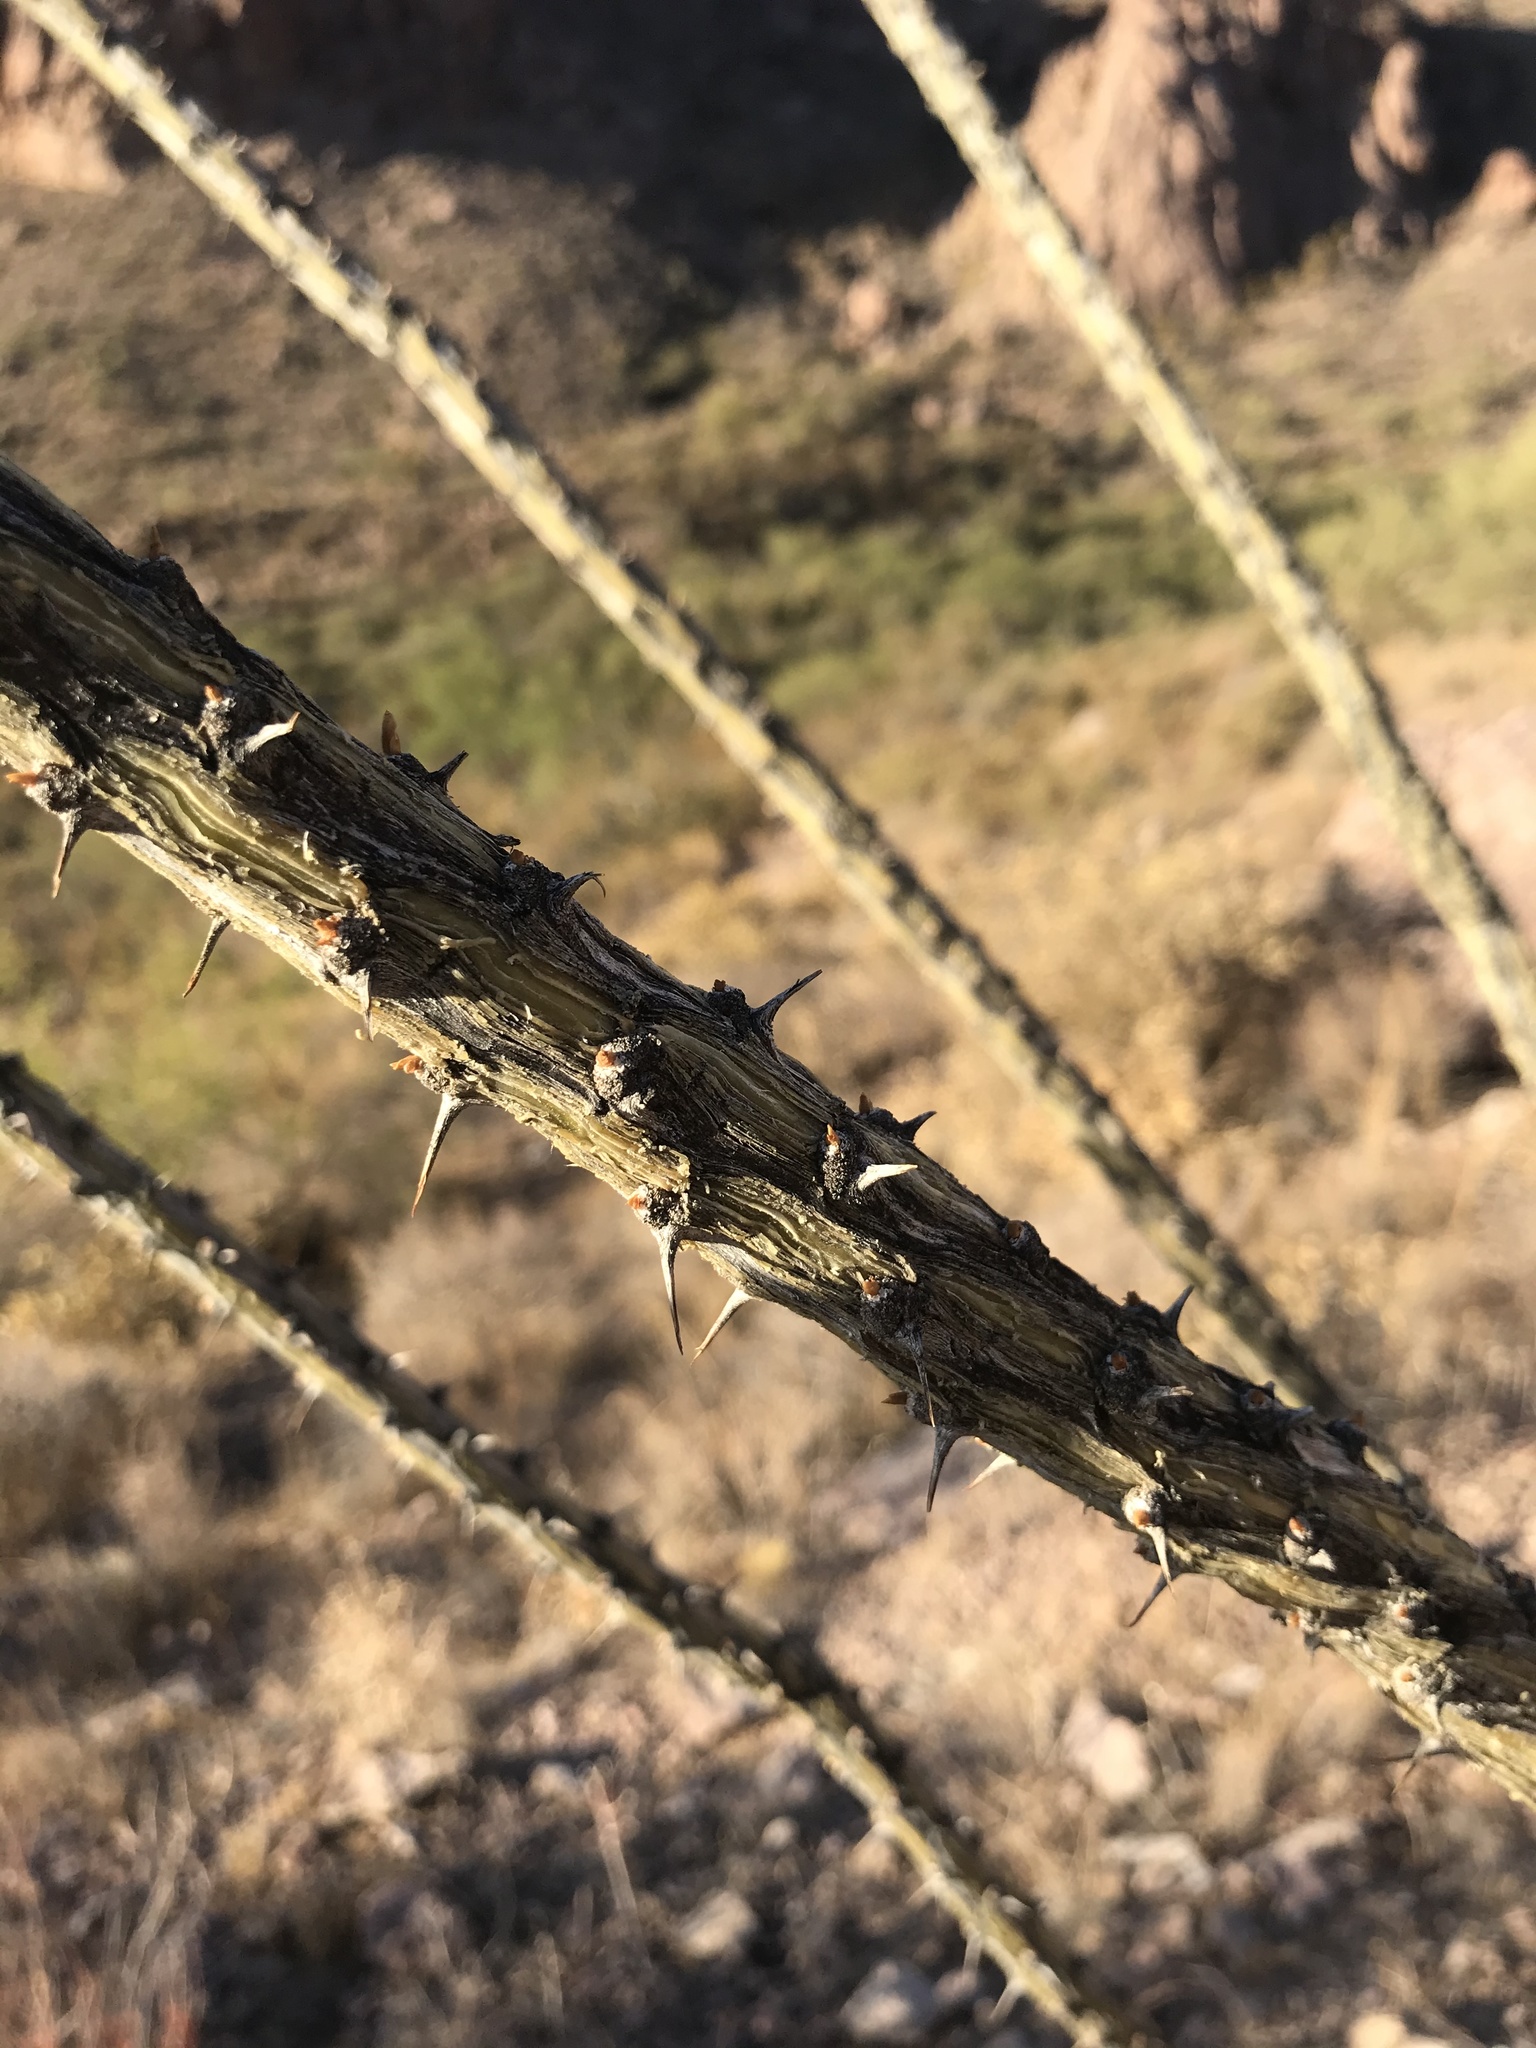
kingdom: Plantae
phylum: Tracheophyta
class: Magnoliopsida
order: Ericales
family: Fouquieriaceae
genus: Fouquieria
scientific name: Fouquieria splendens
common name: Vine-cactus
